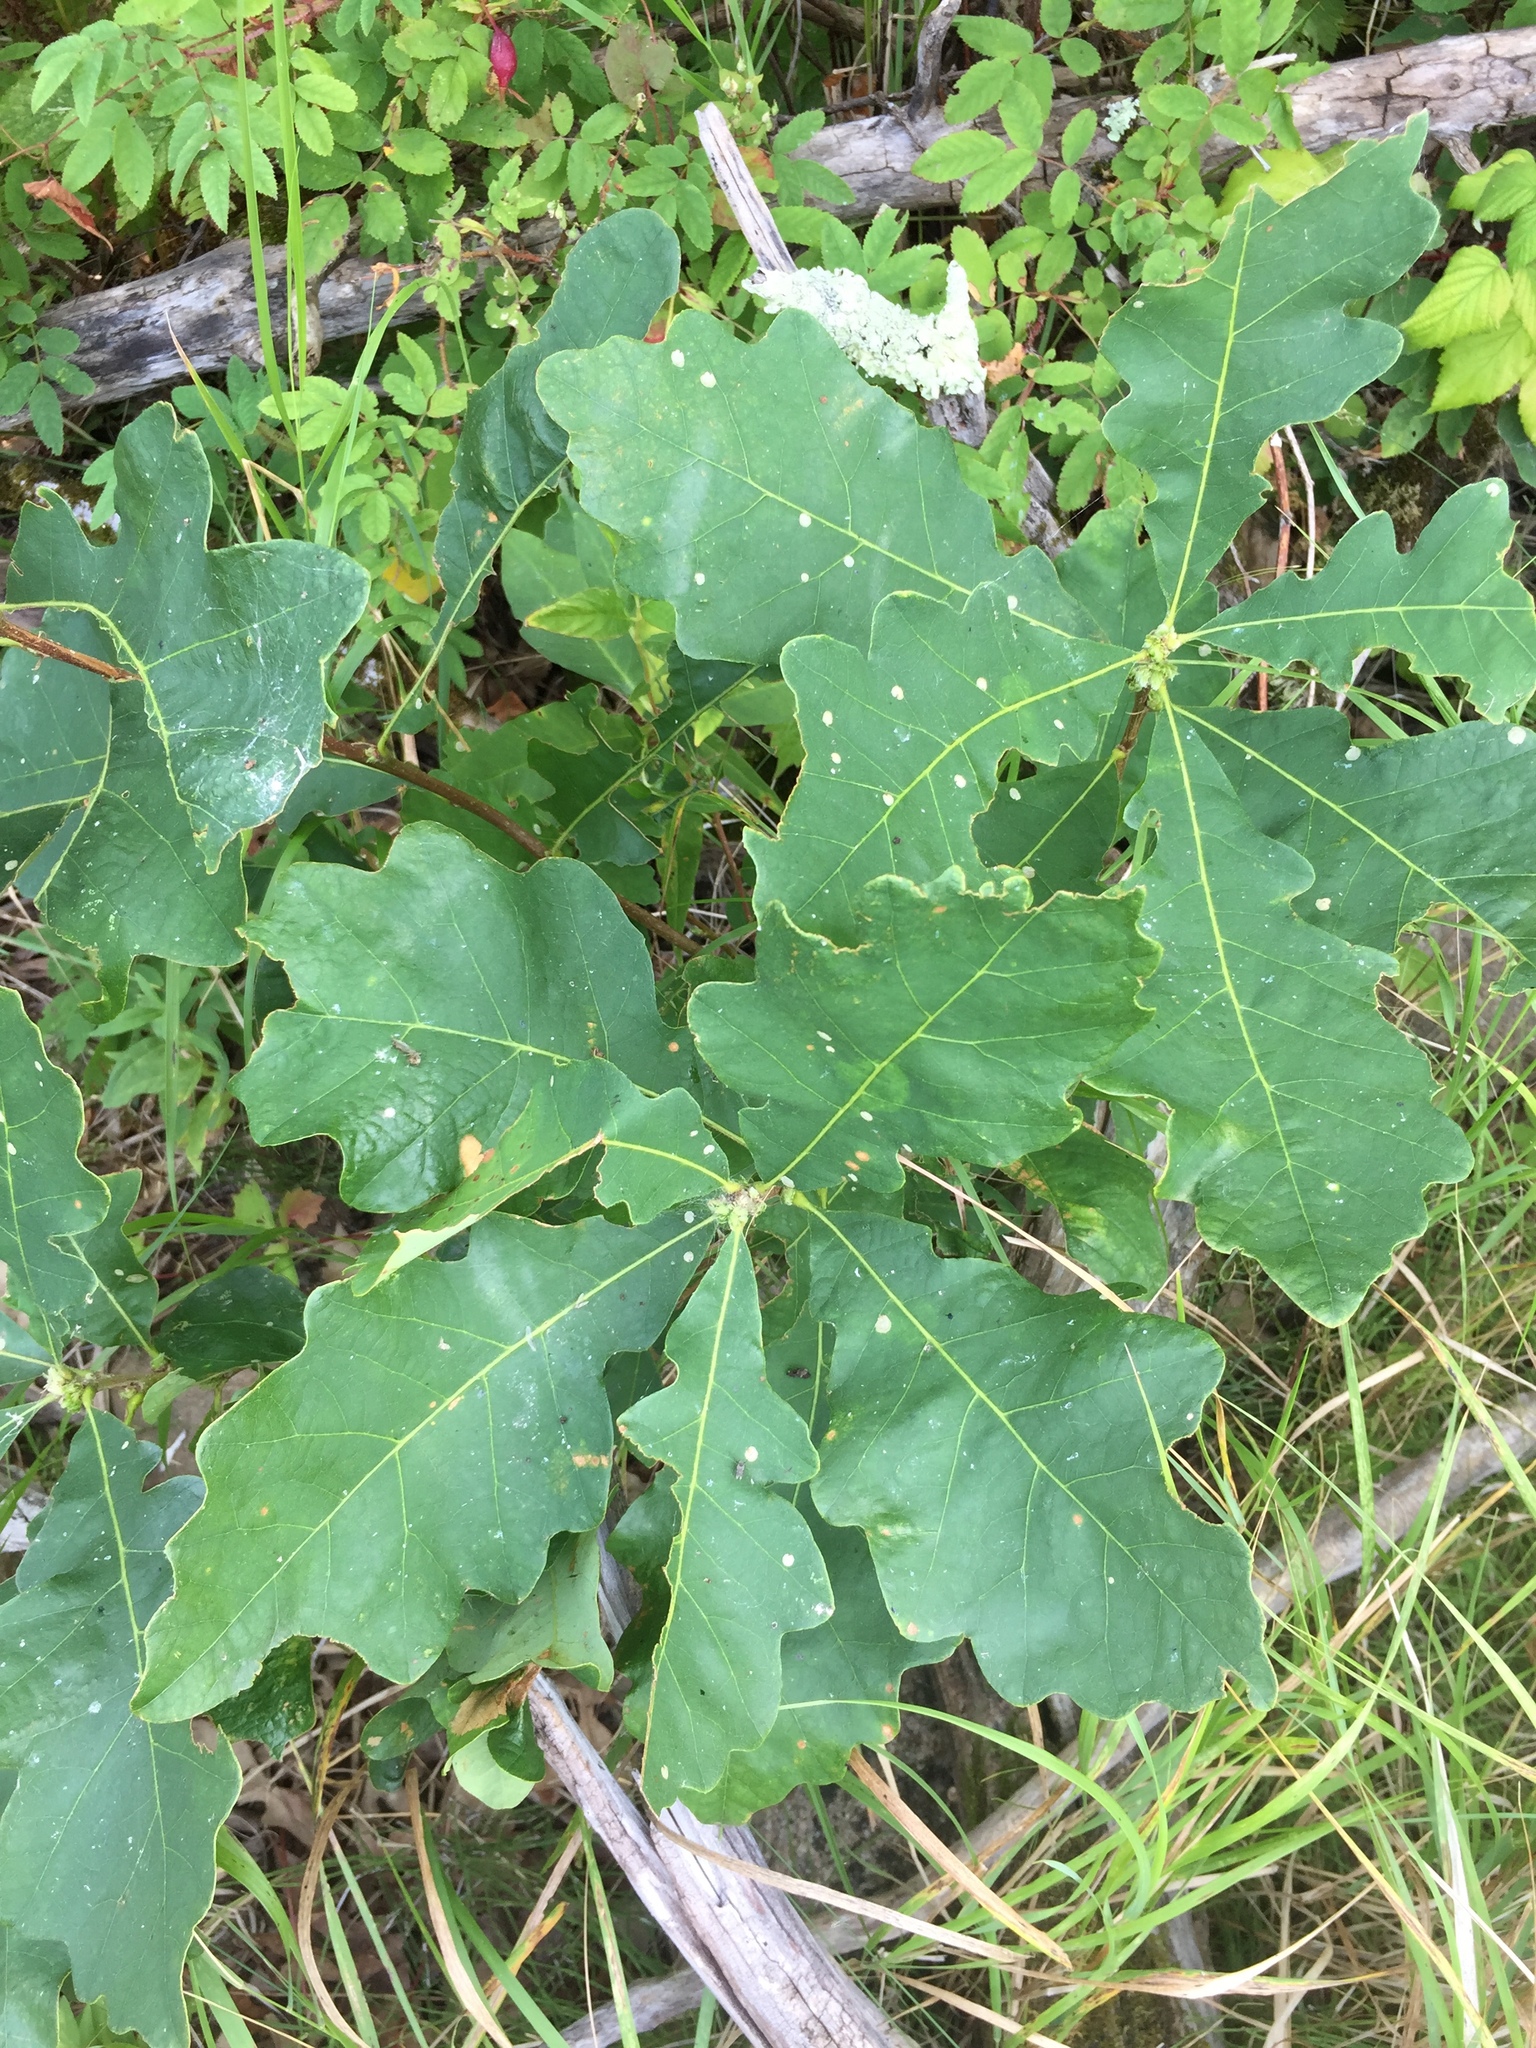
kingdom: Plantae
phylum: Tracheophyta
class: Magnoliopsida
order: Fagales
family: Fagaceae
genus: Quercus
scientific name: Quercus macrocarpa
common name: Bur oak
